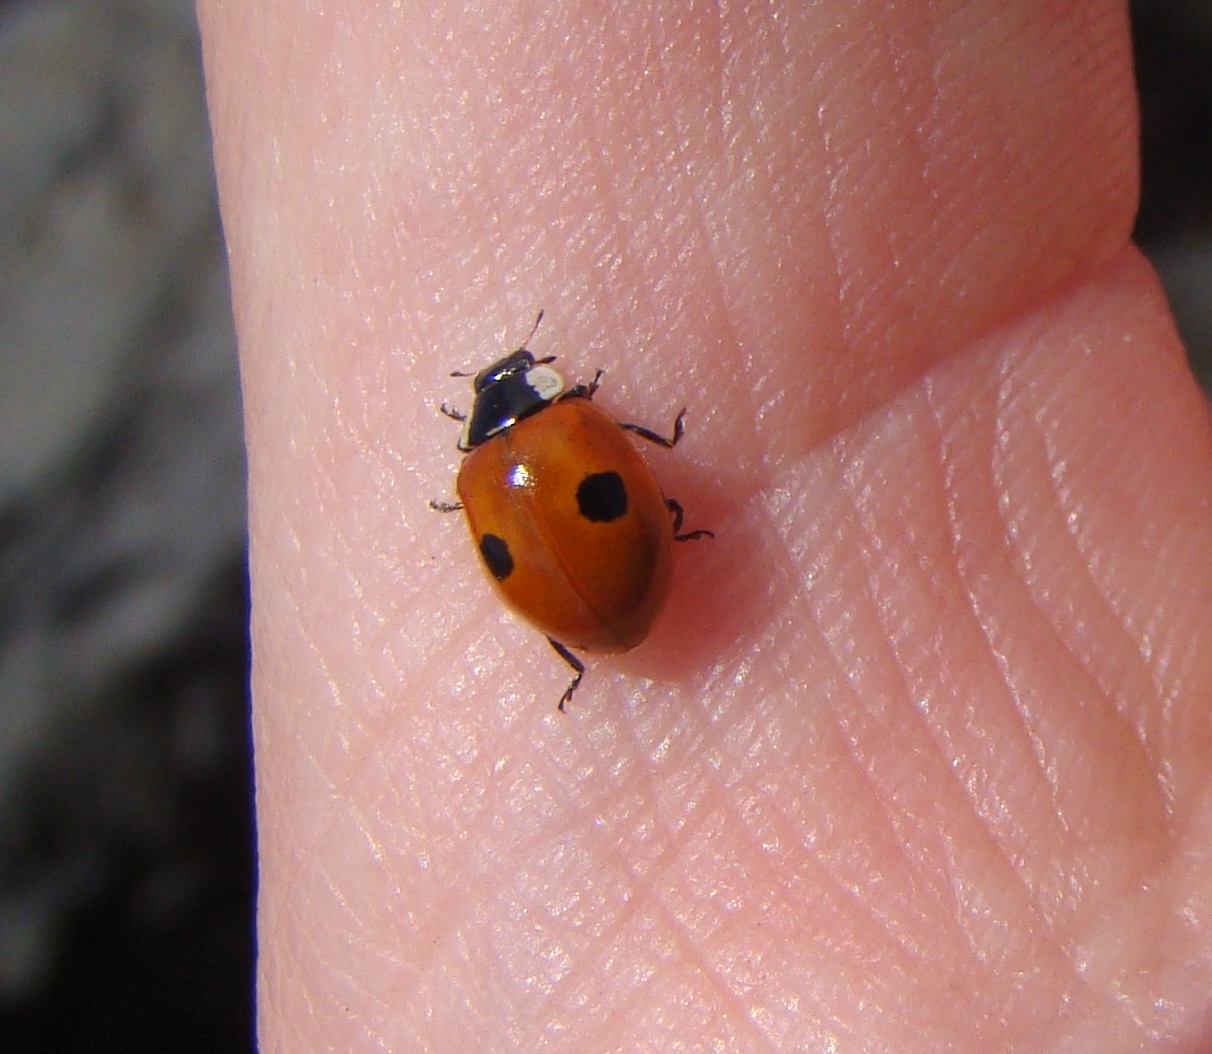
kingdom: Animalia
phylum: Arthropoda
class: Insecta
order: Coleoptera
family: Coccinellidae
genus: Adalia
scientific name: Adalia bipunctata
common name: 2-spot ladybird
